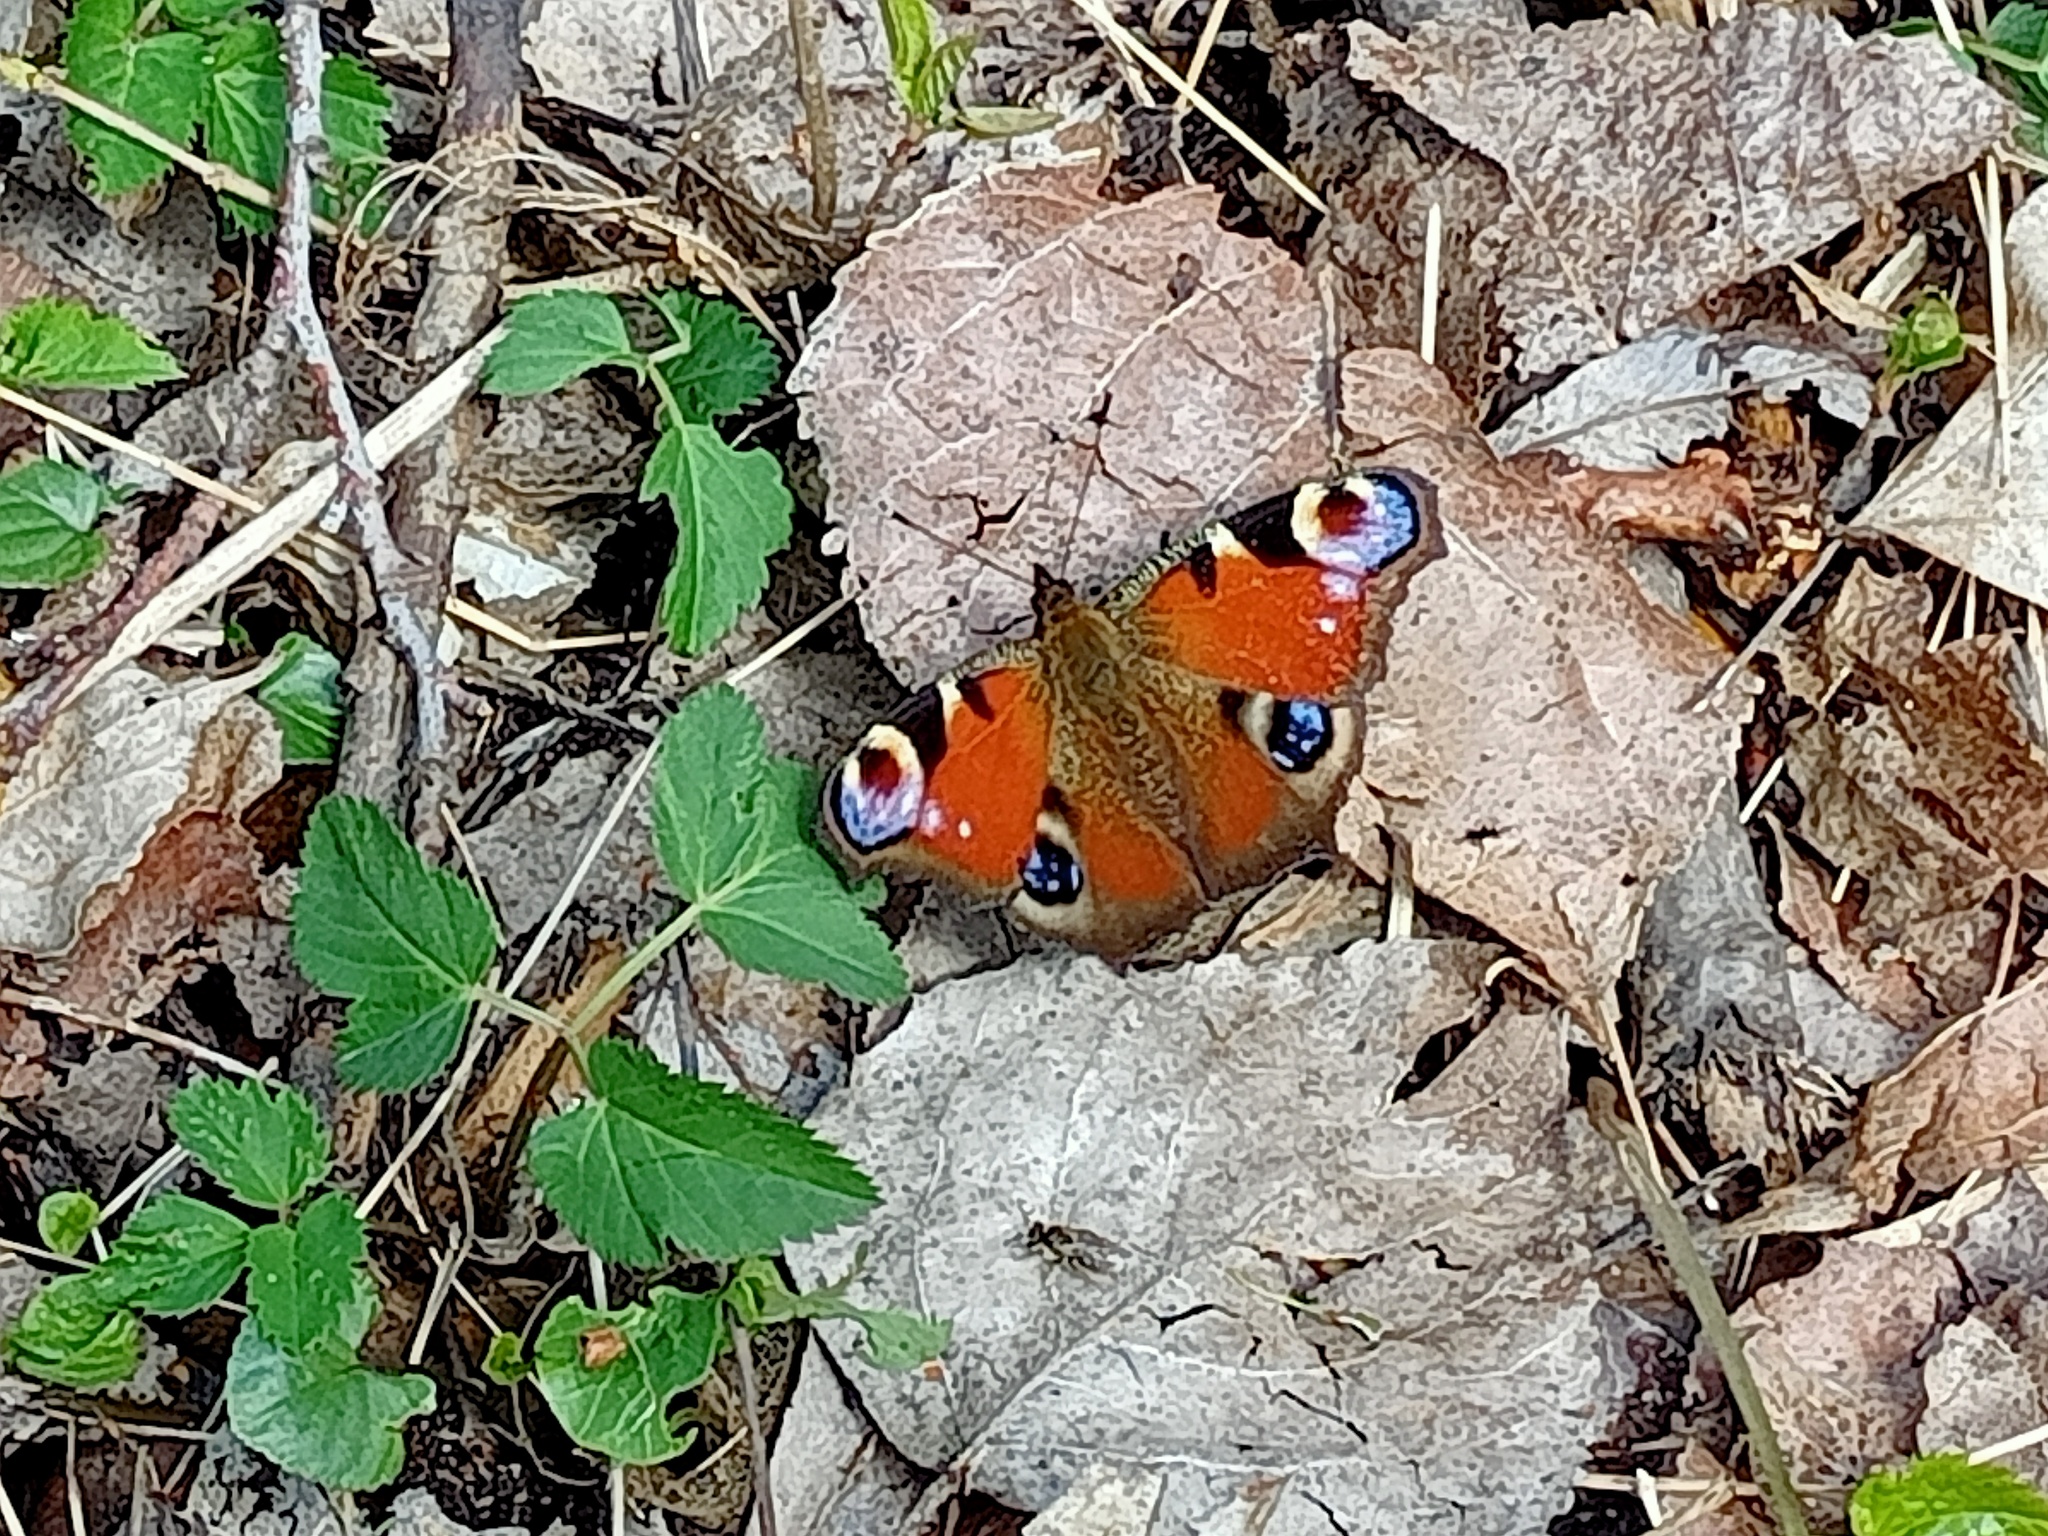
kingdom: Animalia
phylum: Arthropoda
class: Insecta
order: Lepidoptera
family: Nymphalidae
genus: Aglais
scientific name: Aglais io
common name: Peacock
